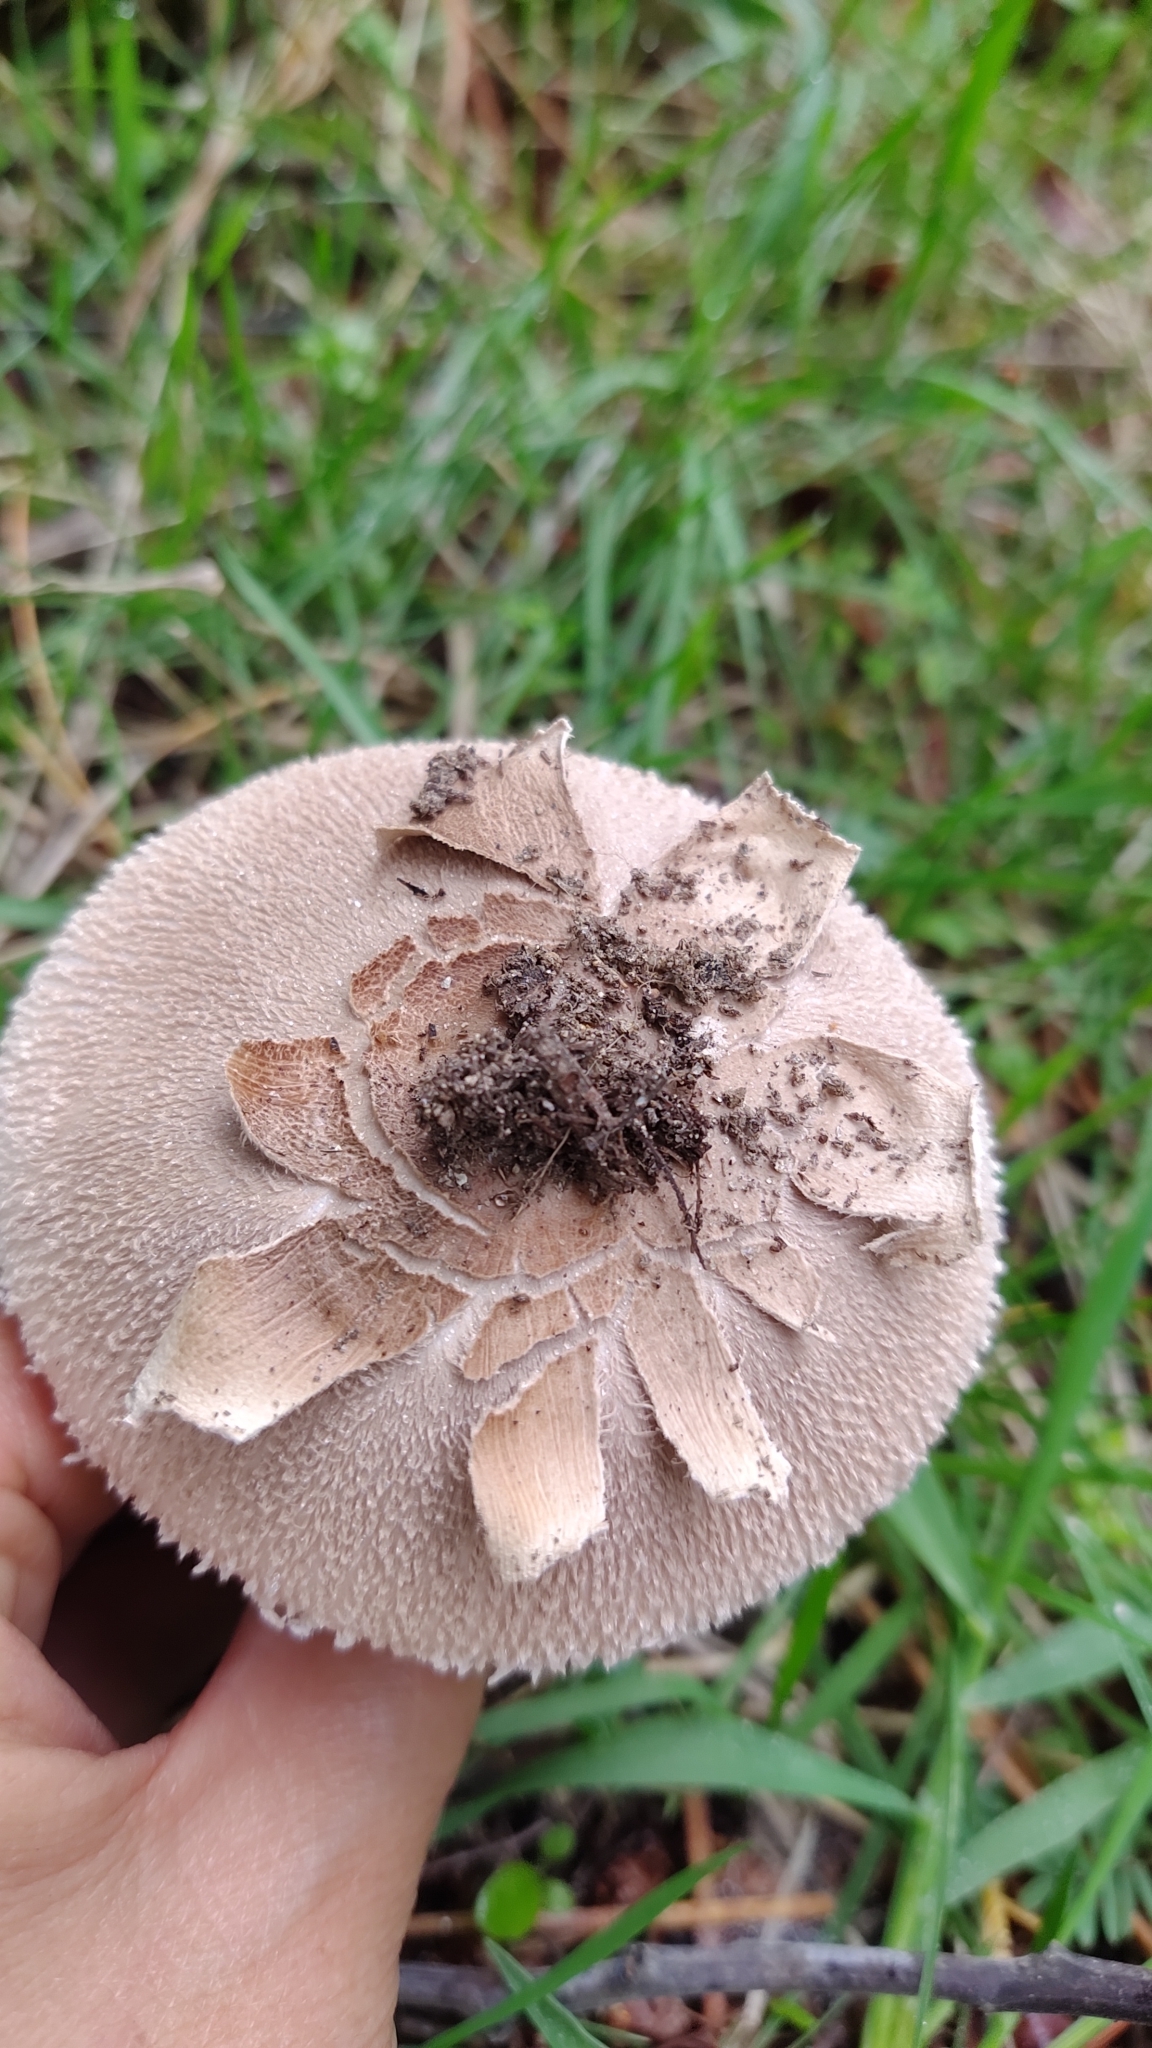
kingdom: Fungi
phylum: Basidiomycota
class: Agaricomycetes
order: Agaricales
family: Agaricaceae
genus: Macrolepiota
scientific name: Macrolepiota procera
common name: Parasol
